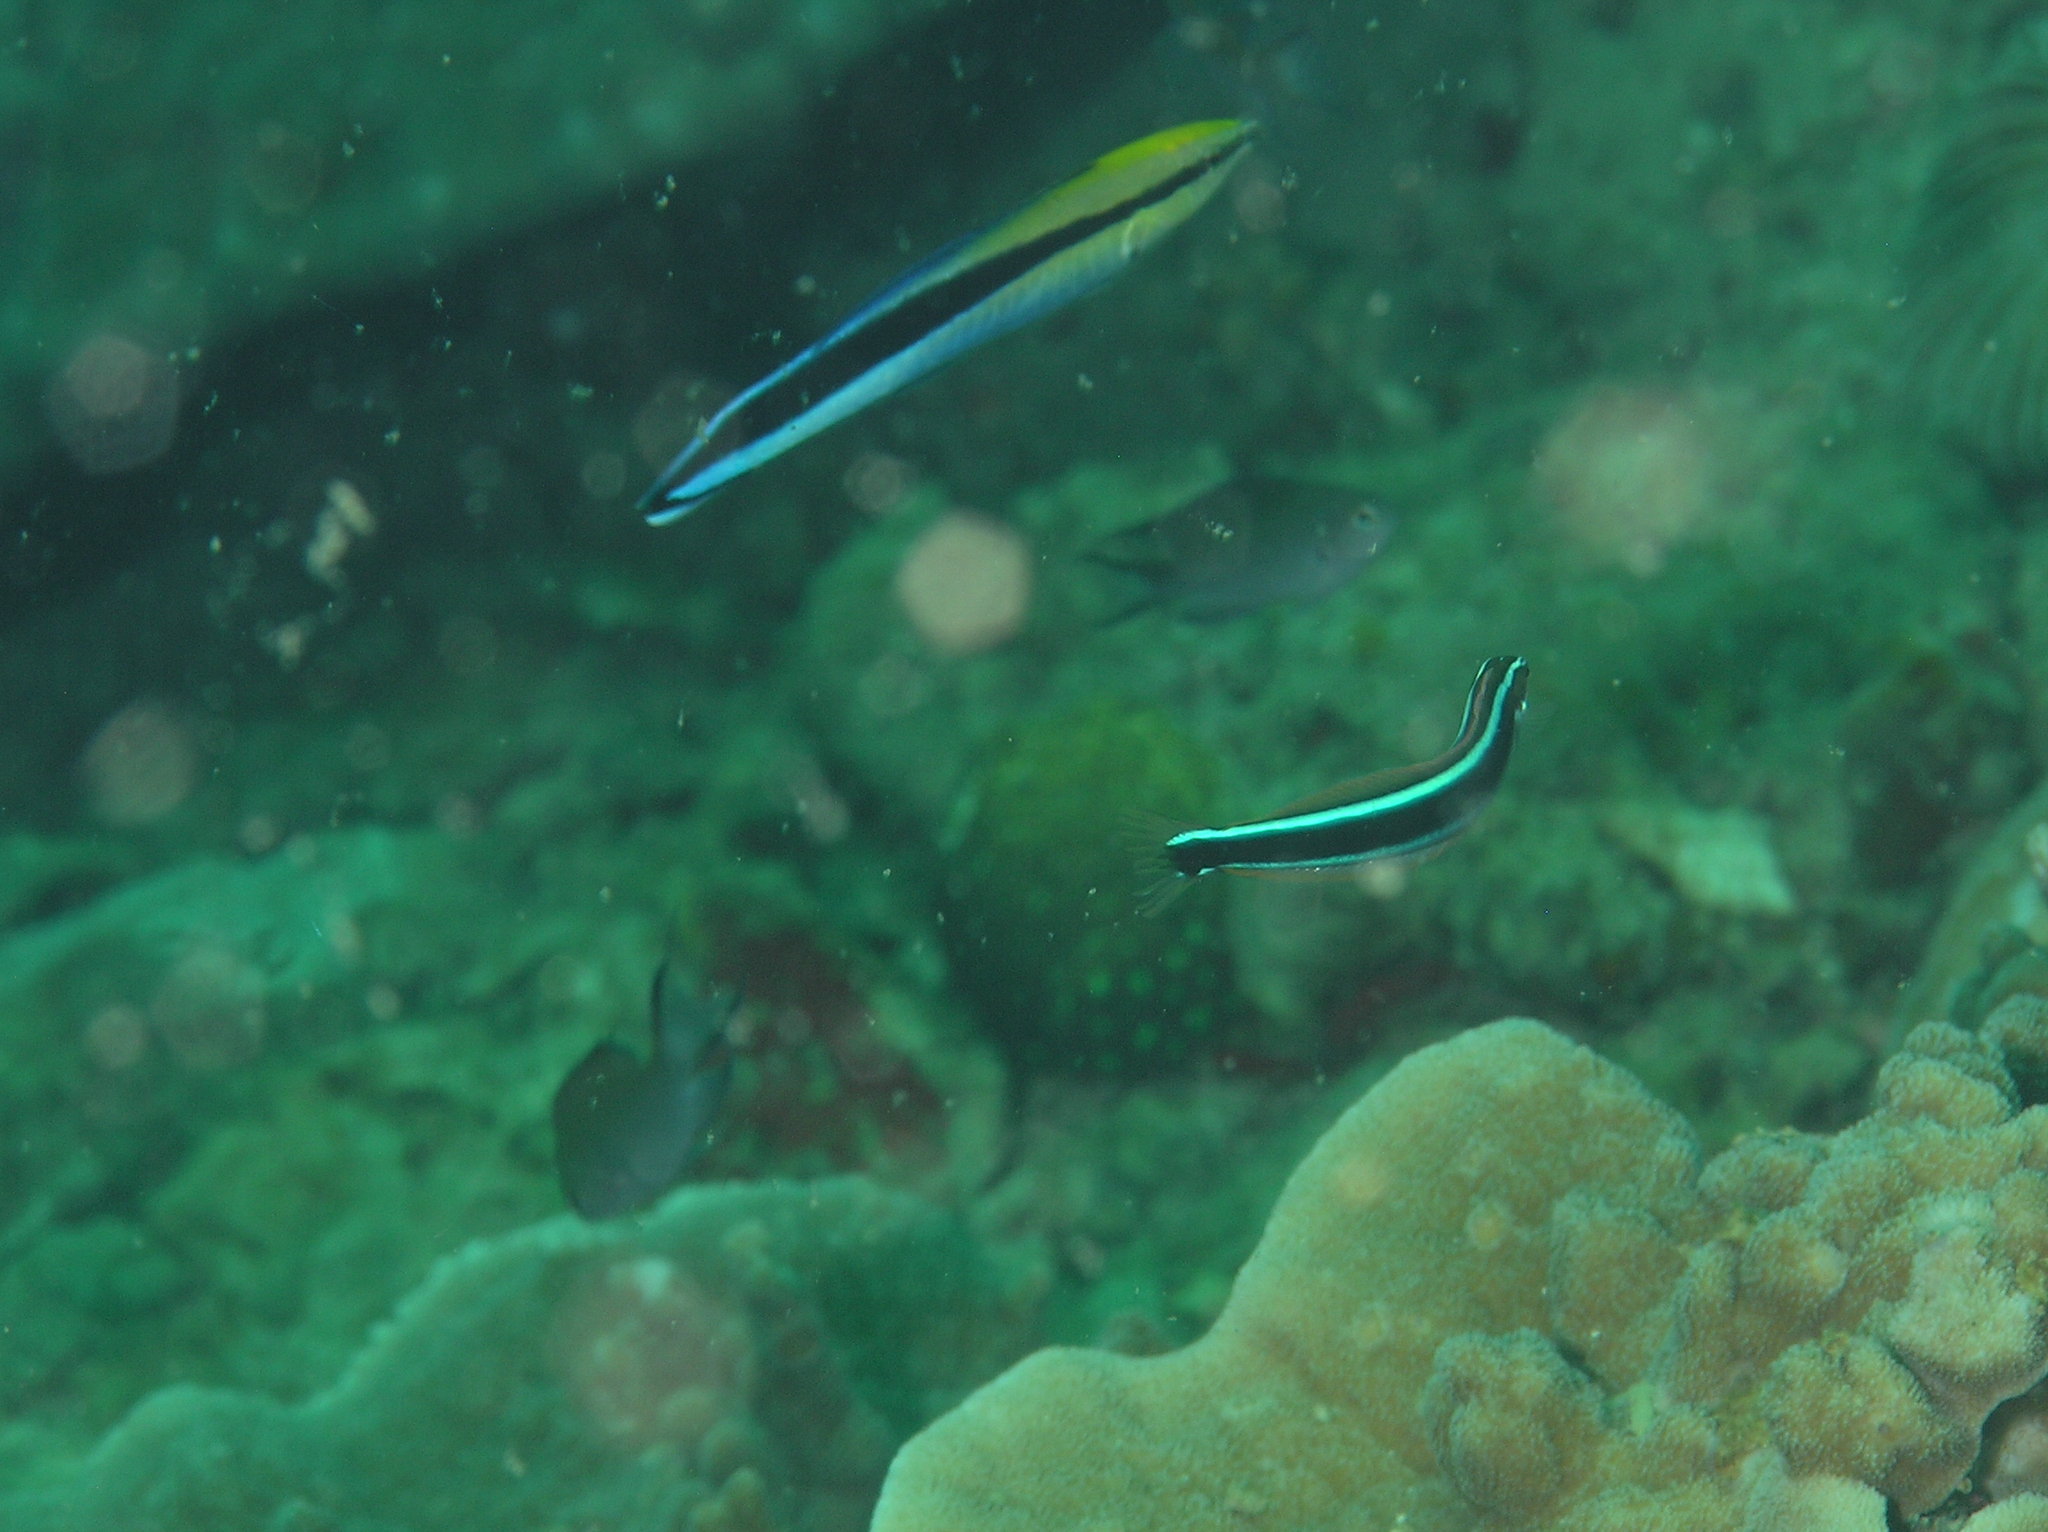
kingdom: Animalia
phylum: Chordata
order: Perciformes
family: Labridae
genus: Labroides
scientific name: Labroides dimidiatus
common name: Blue diesel wrasse
